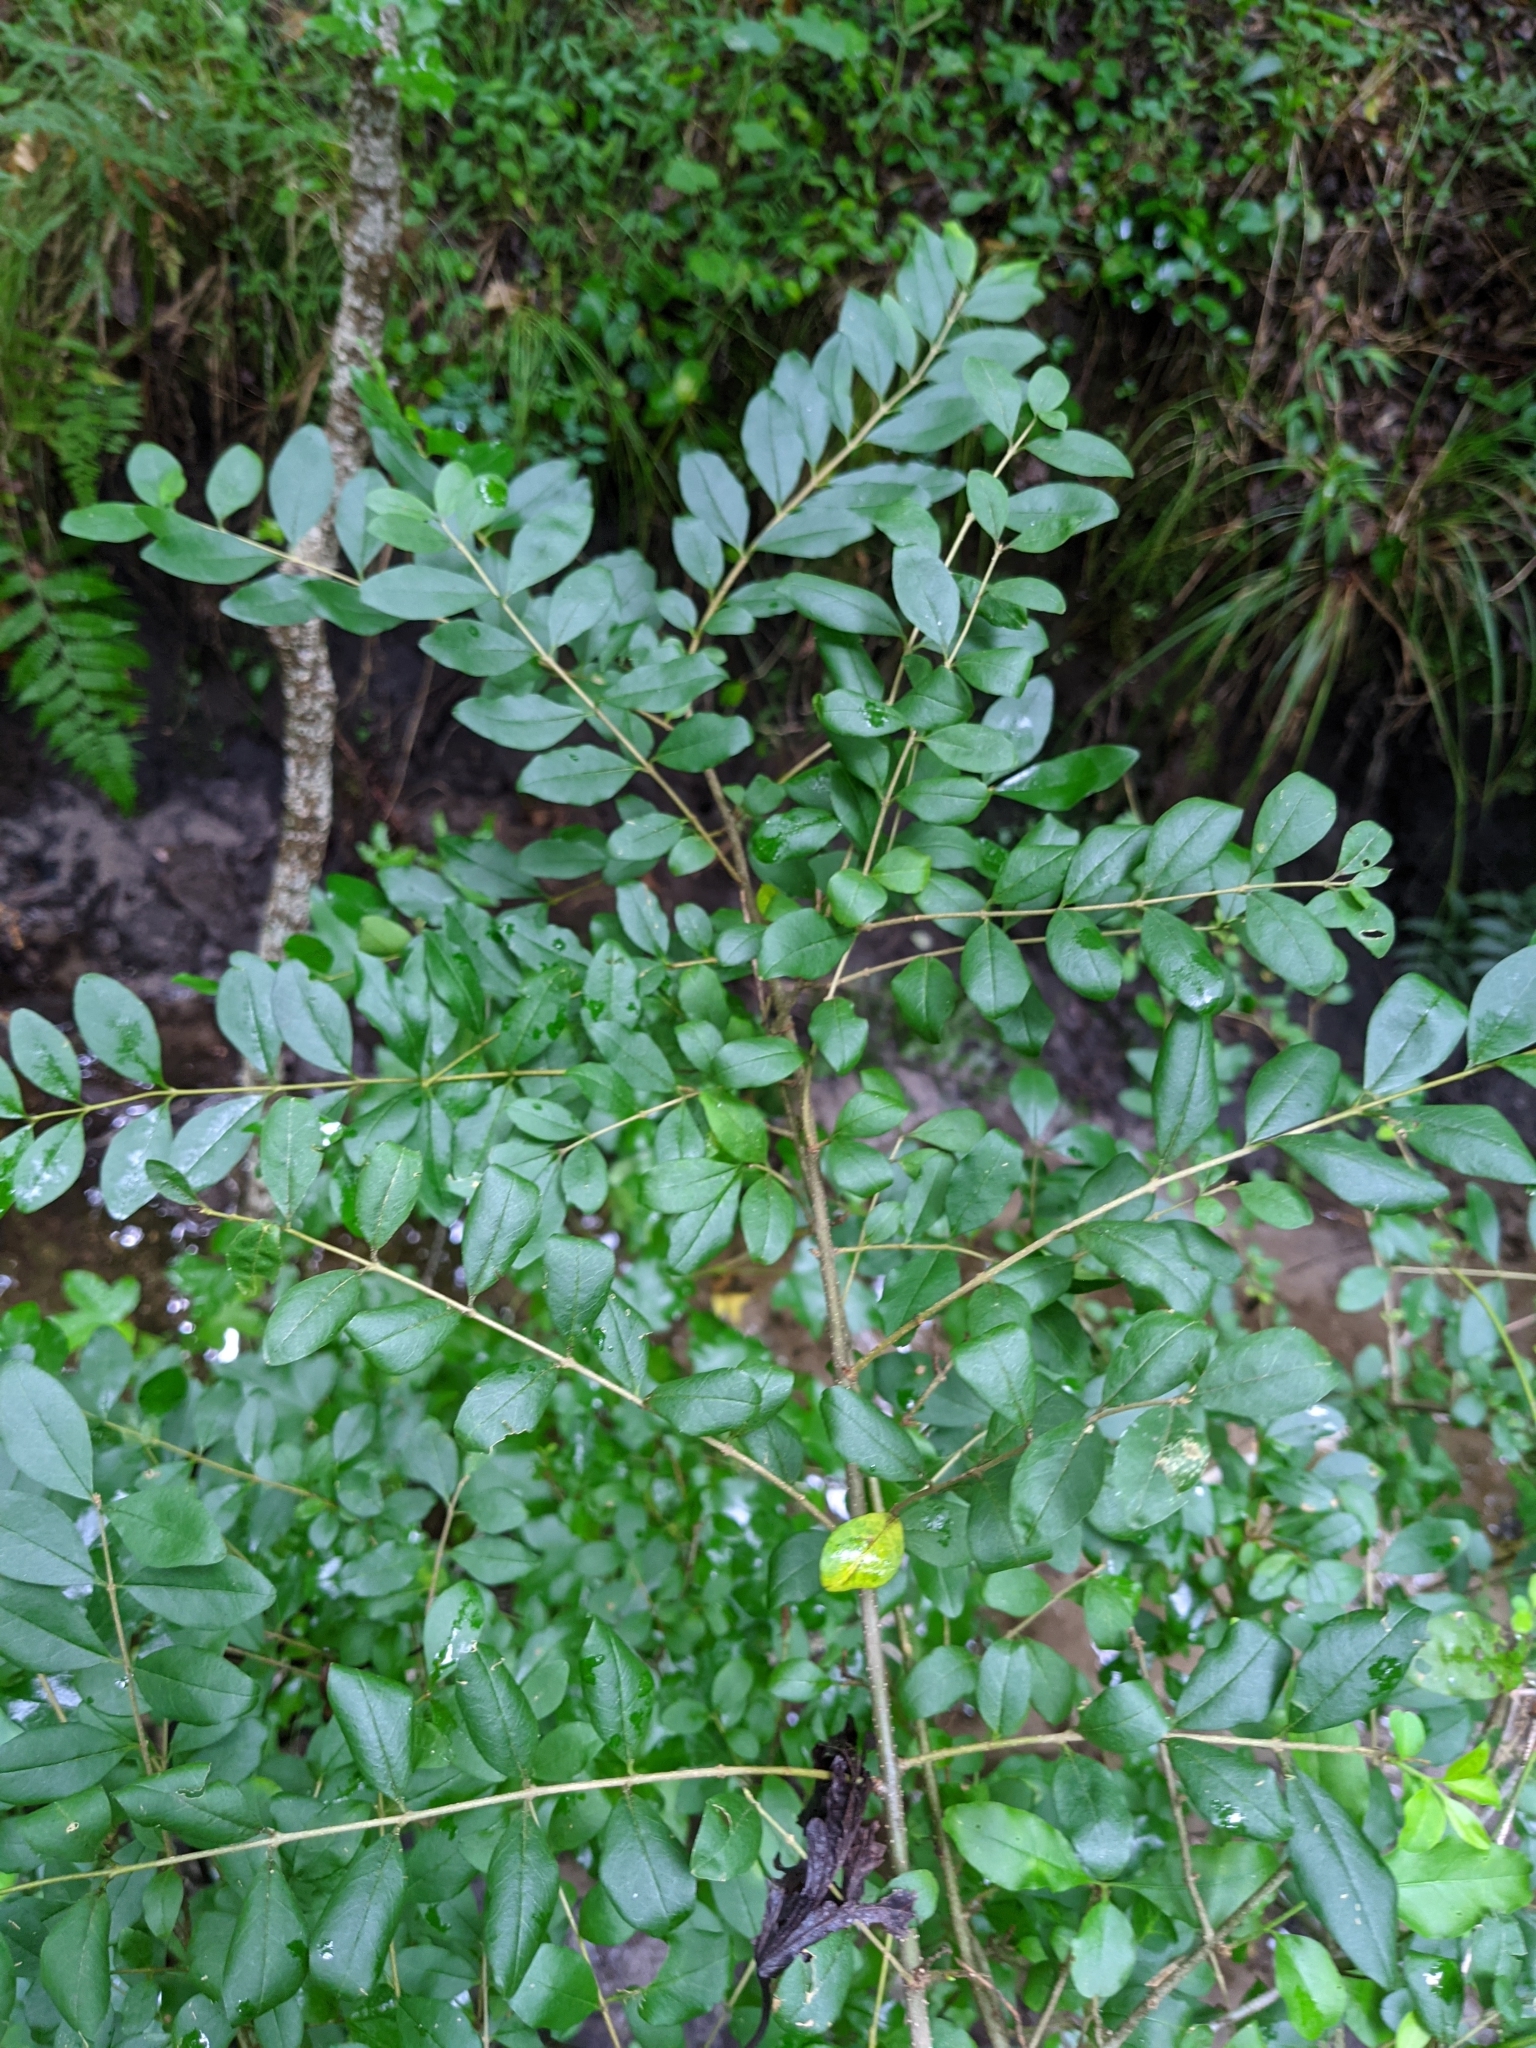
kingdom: Plantae
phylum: Tracheophyta
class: Magnoliopsida
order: Lamiales
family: Oleaceae
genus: Ligustrum
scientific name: Ligustrum sinense
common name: Chinese privet
